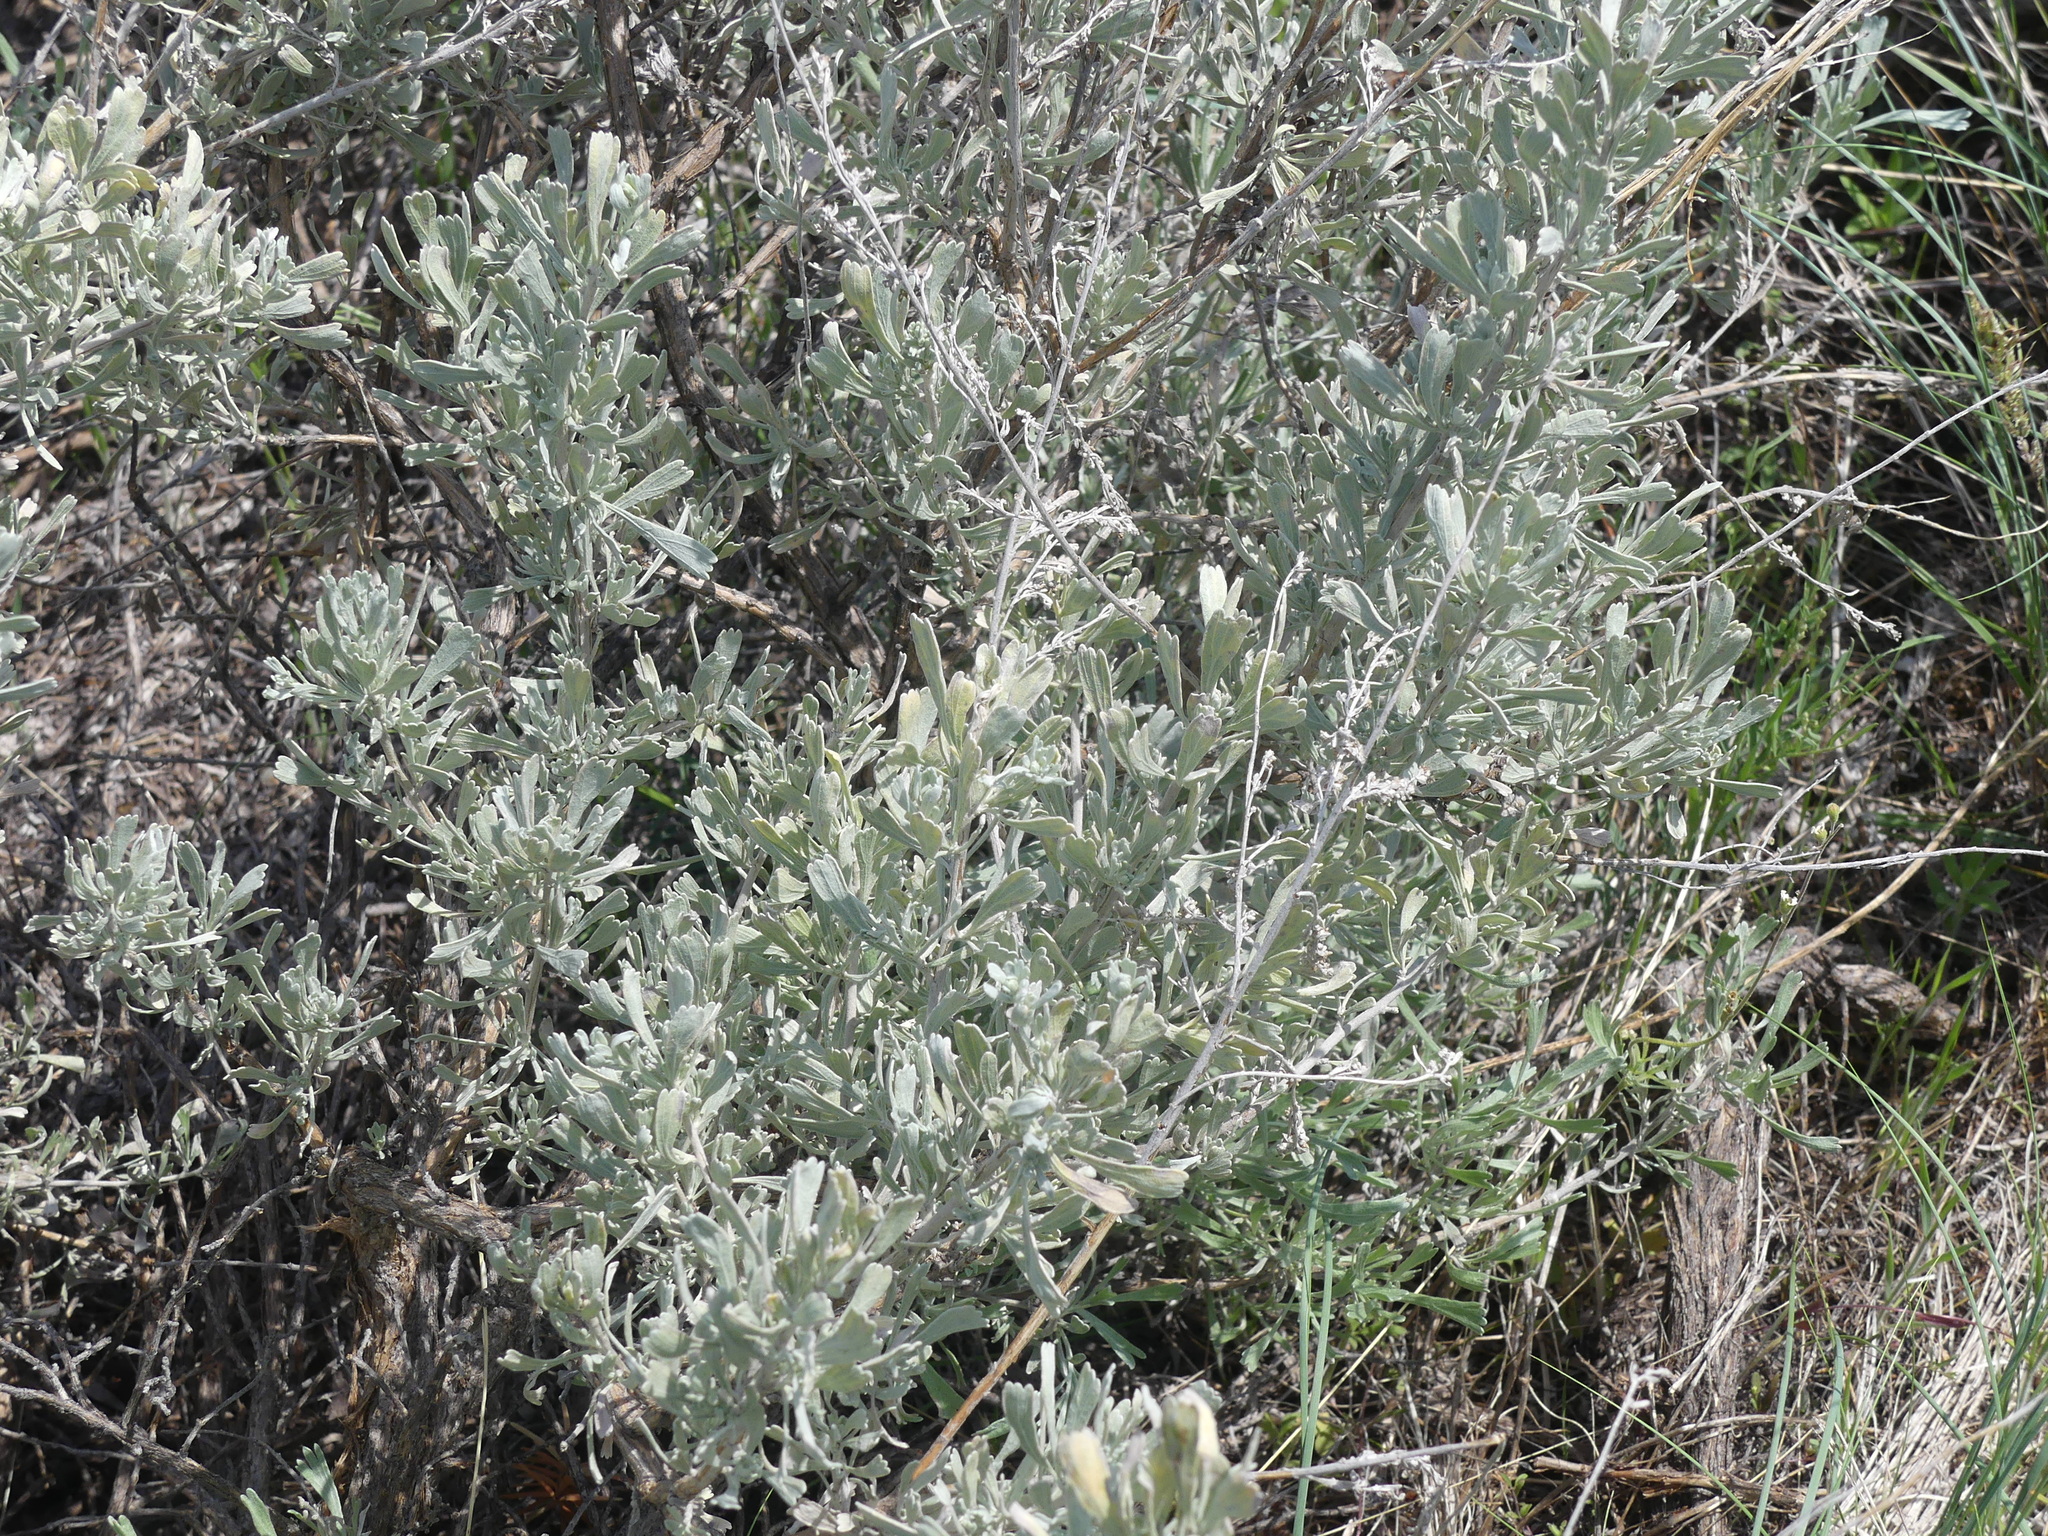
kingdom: Plantae
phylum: Tracheophyta
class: Magnoliopsida
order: Asterales
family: Asteraceae
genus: Artemisia
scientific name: Artemisia tridentata
